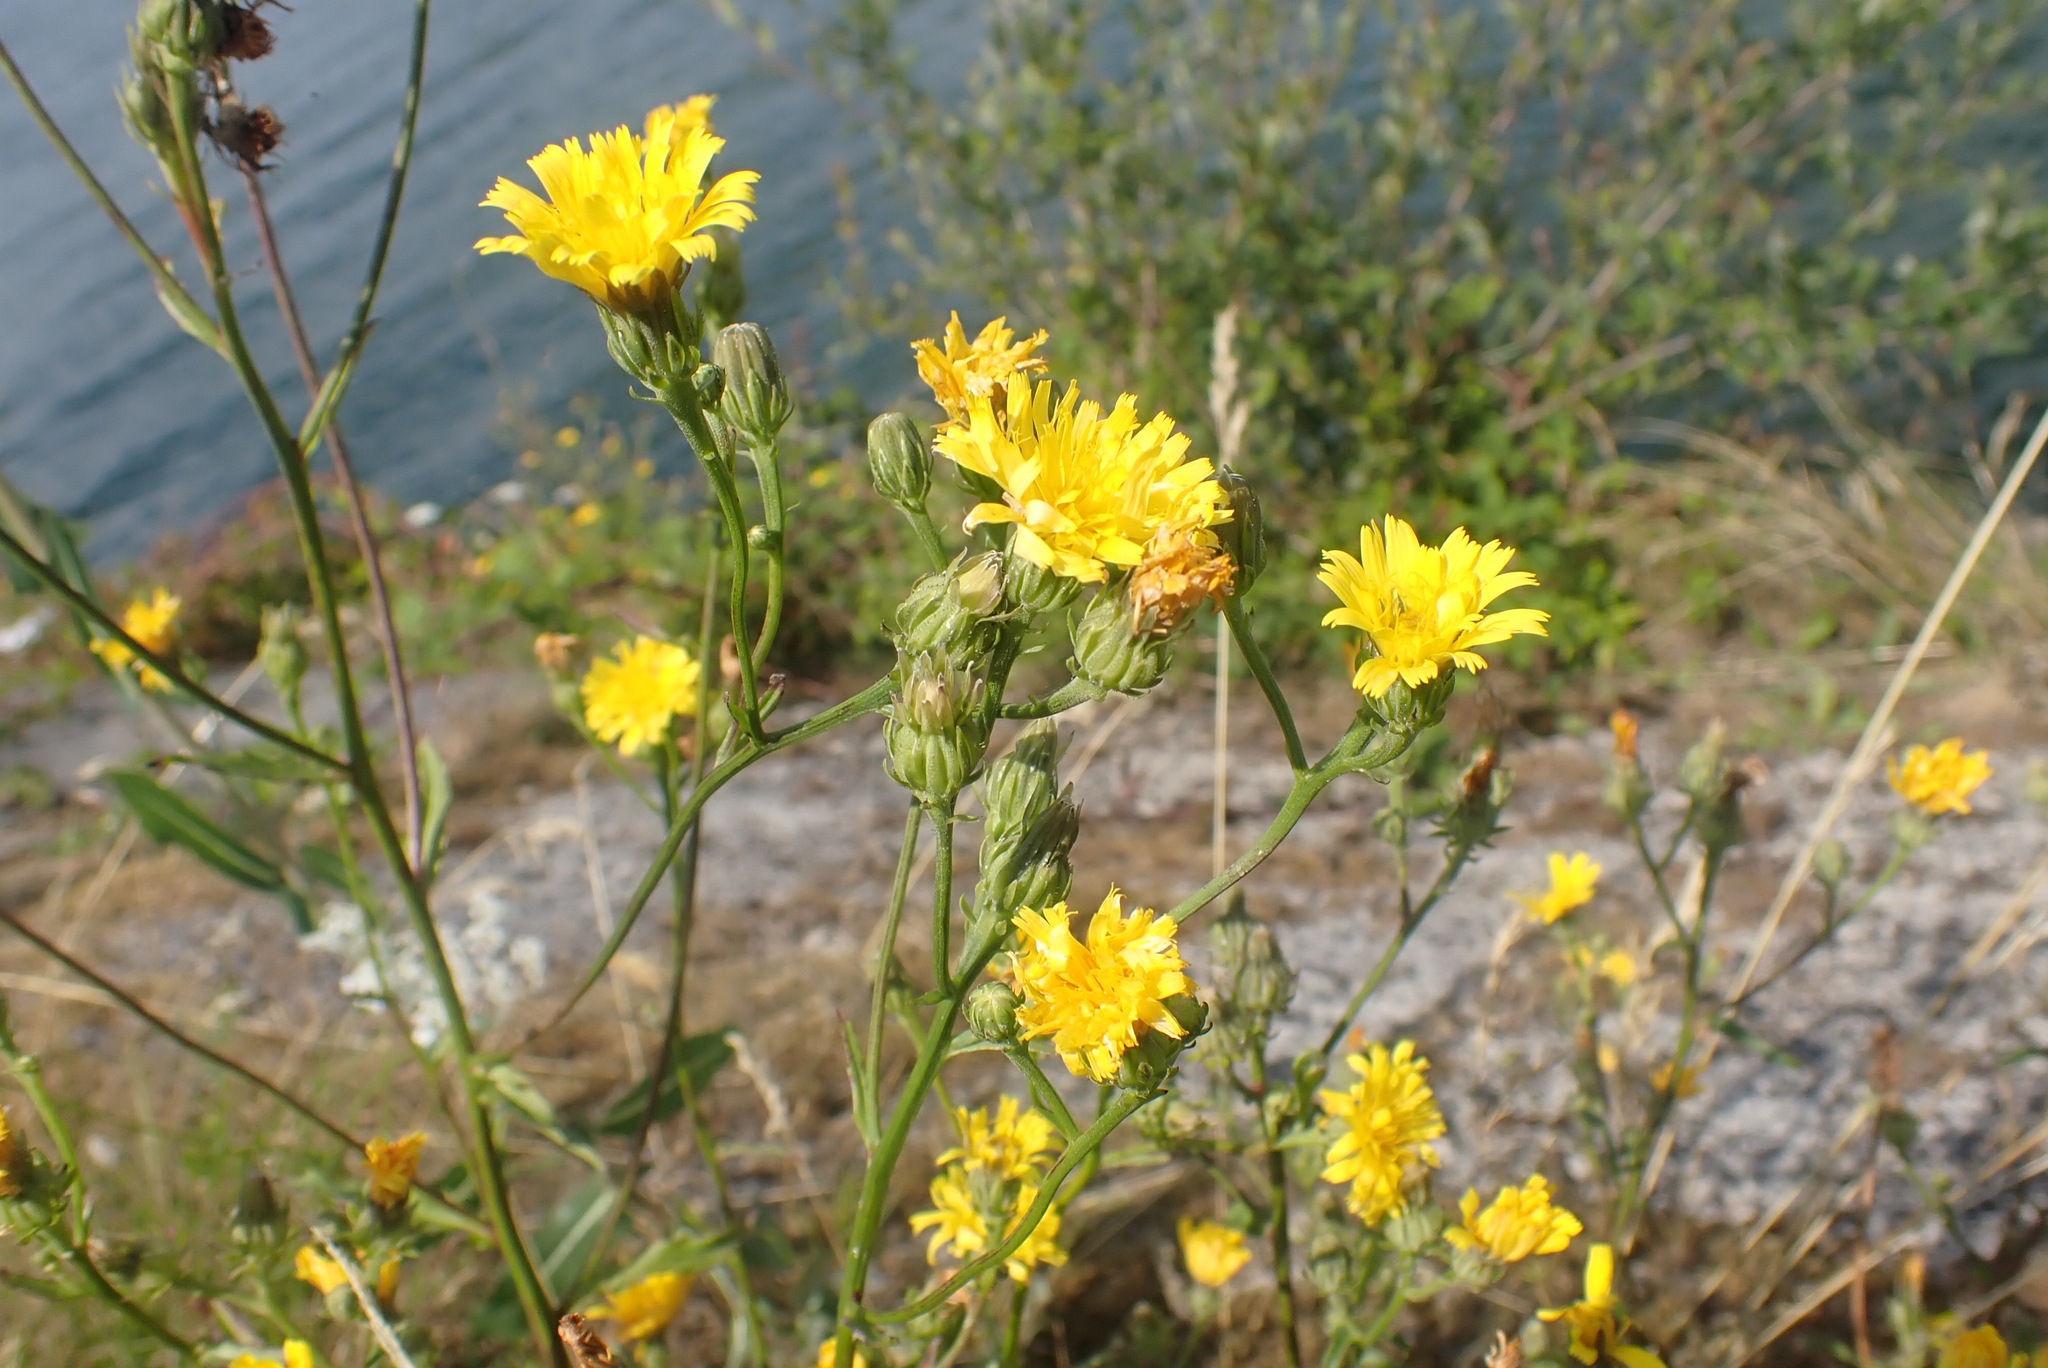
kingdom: Plantae
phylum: Tracheophyta
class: Magnoliopsida
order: Asterales
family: Asteraceae
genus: Picris
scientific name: Picris hieracioides
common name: Hawkweed oxtongue
